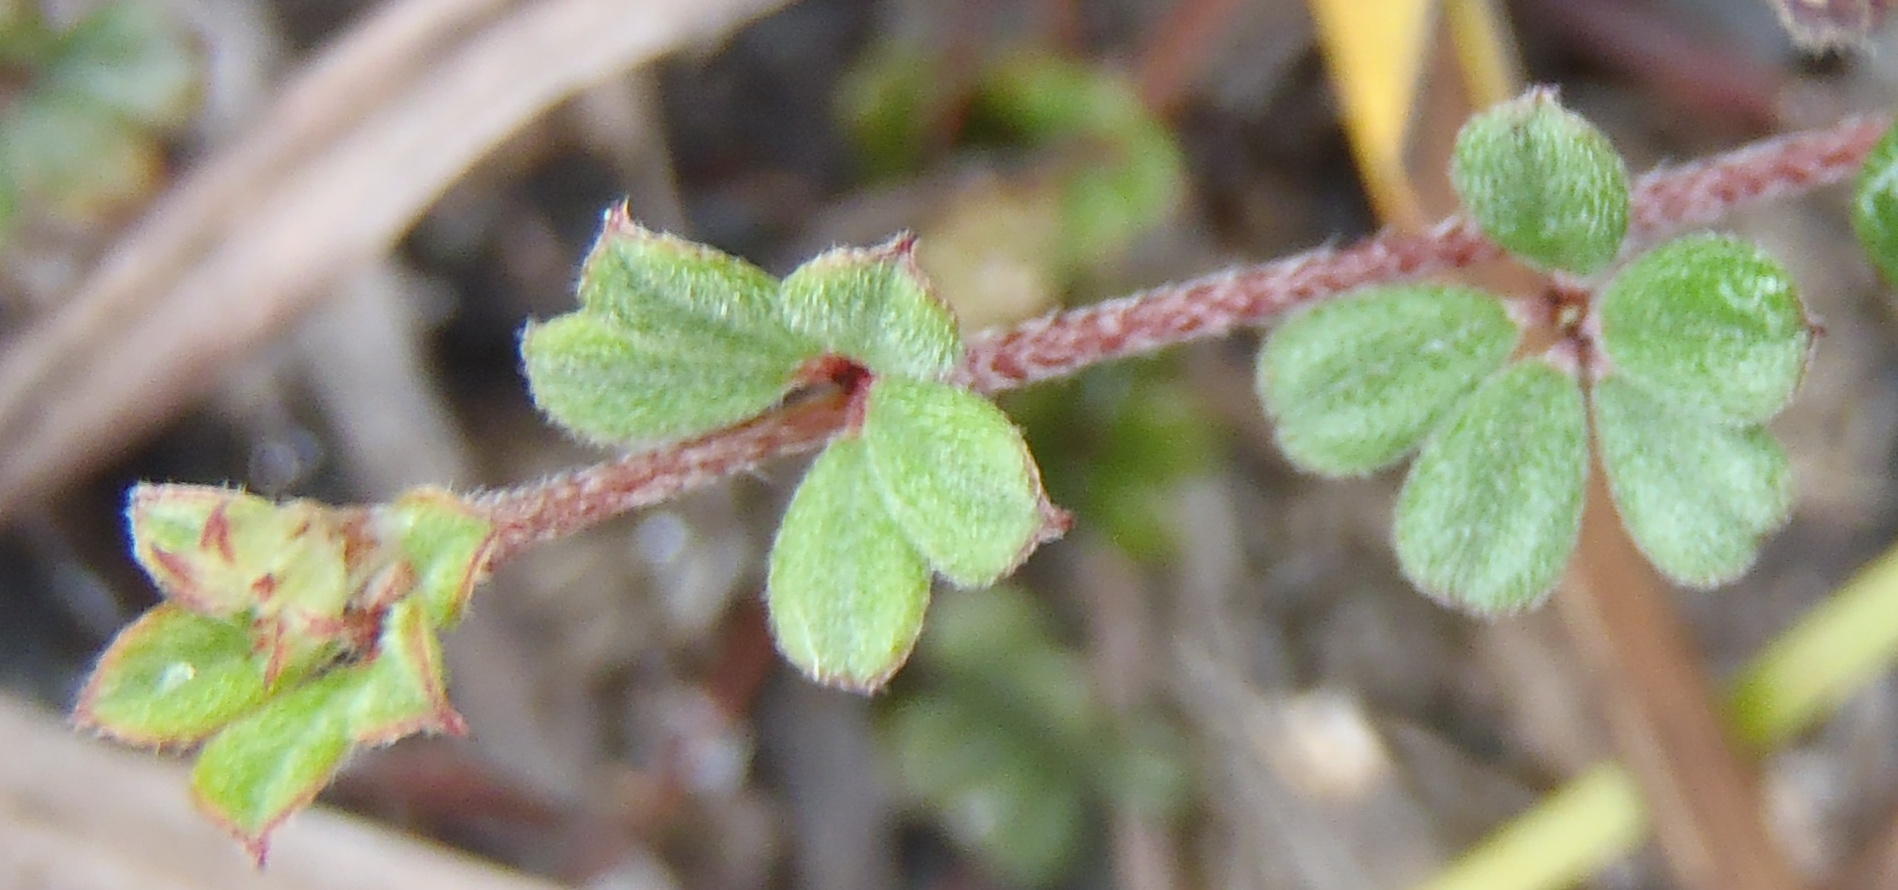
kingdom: Plantae
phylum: Tracheophyta
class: Magnoliopsida
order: Fabales
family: Fabaceae
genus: Indigofera
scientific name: Indigofera
